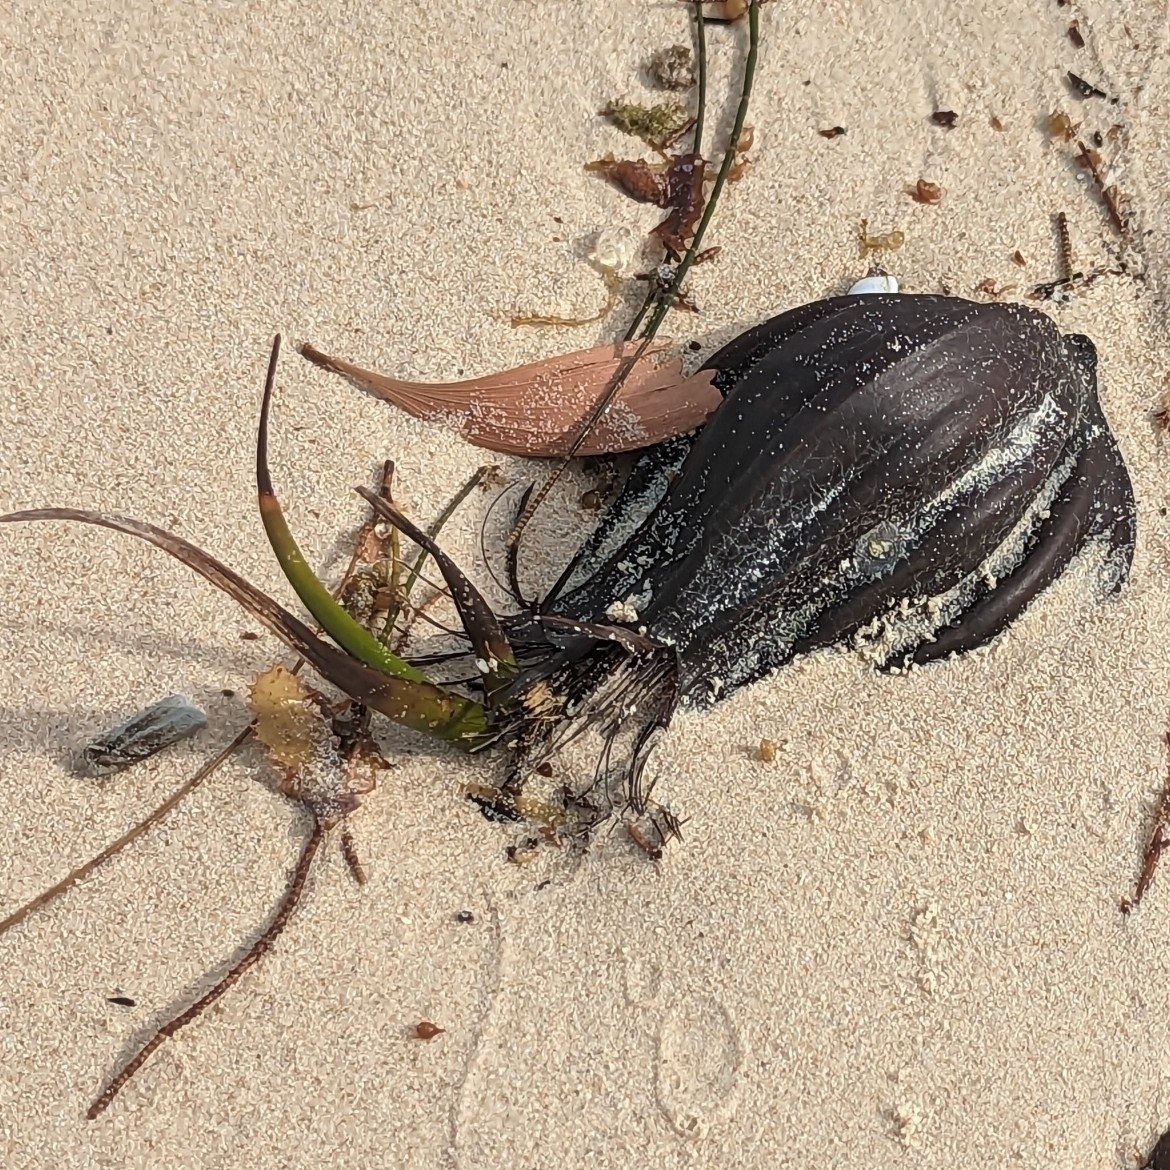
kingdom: Plantae
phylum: Tracheophyta
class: Liliopsida
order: Arecales
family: Arecaceae
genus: Nypa
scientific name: Nypa fruticans
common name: Mangrove palm
